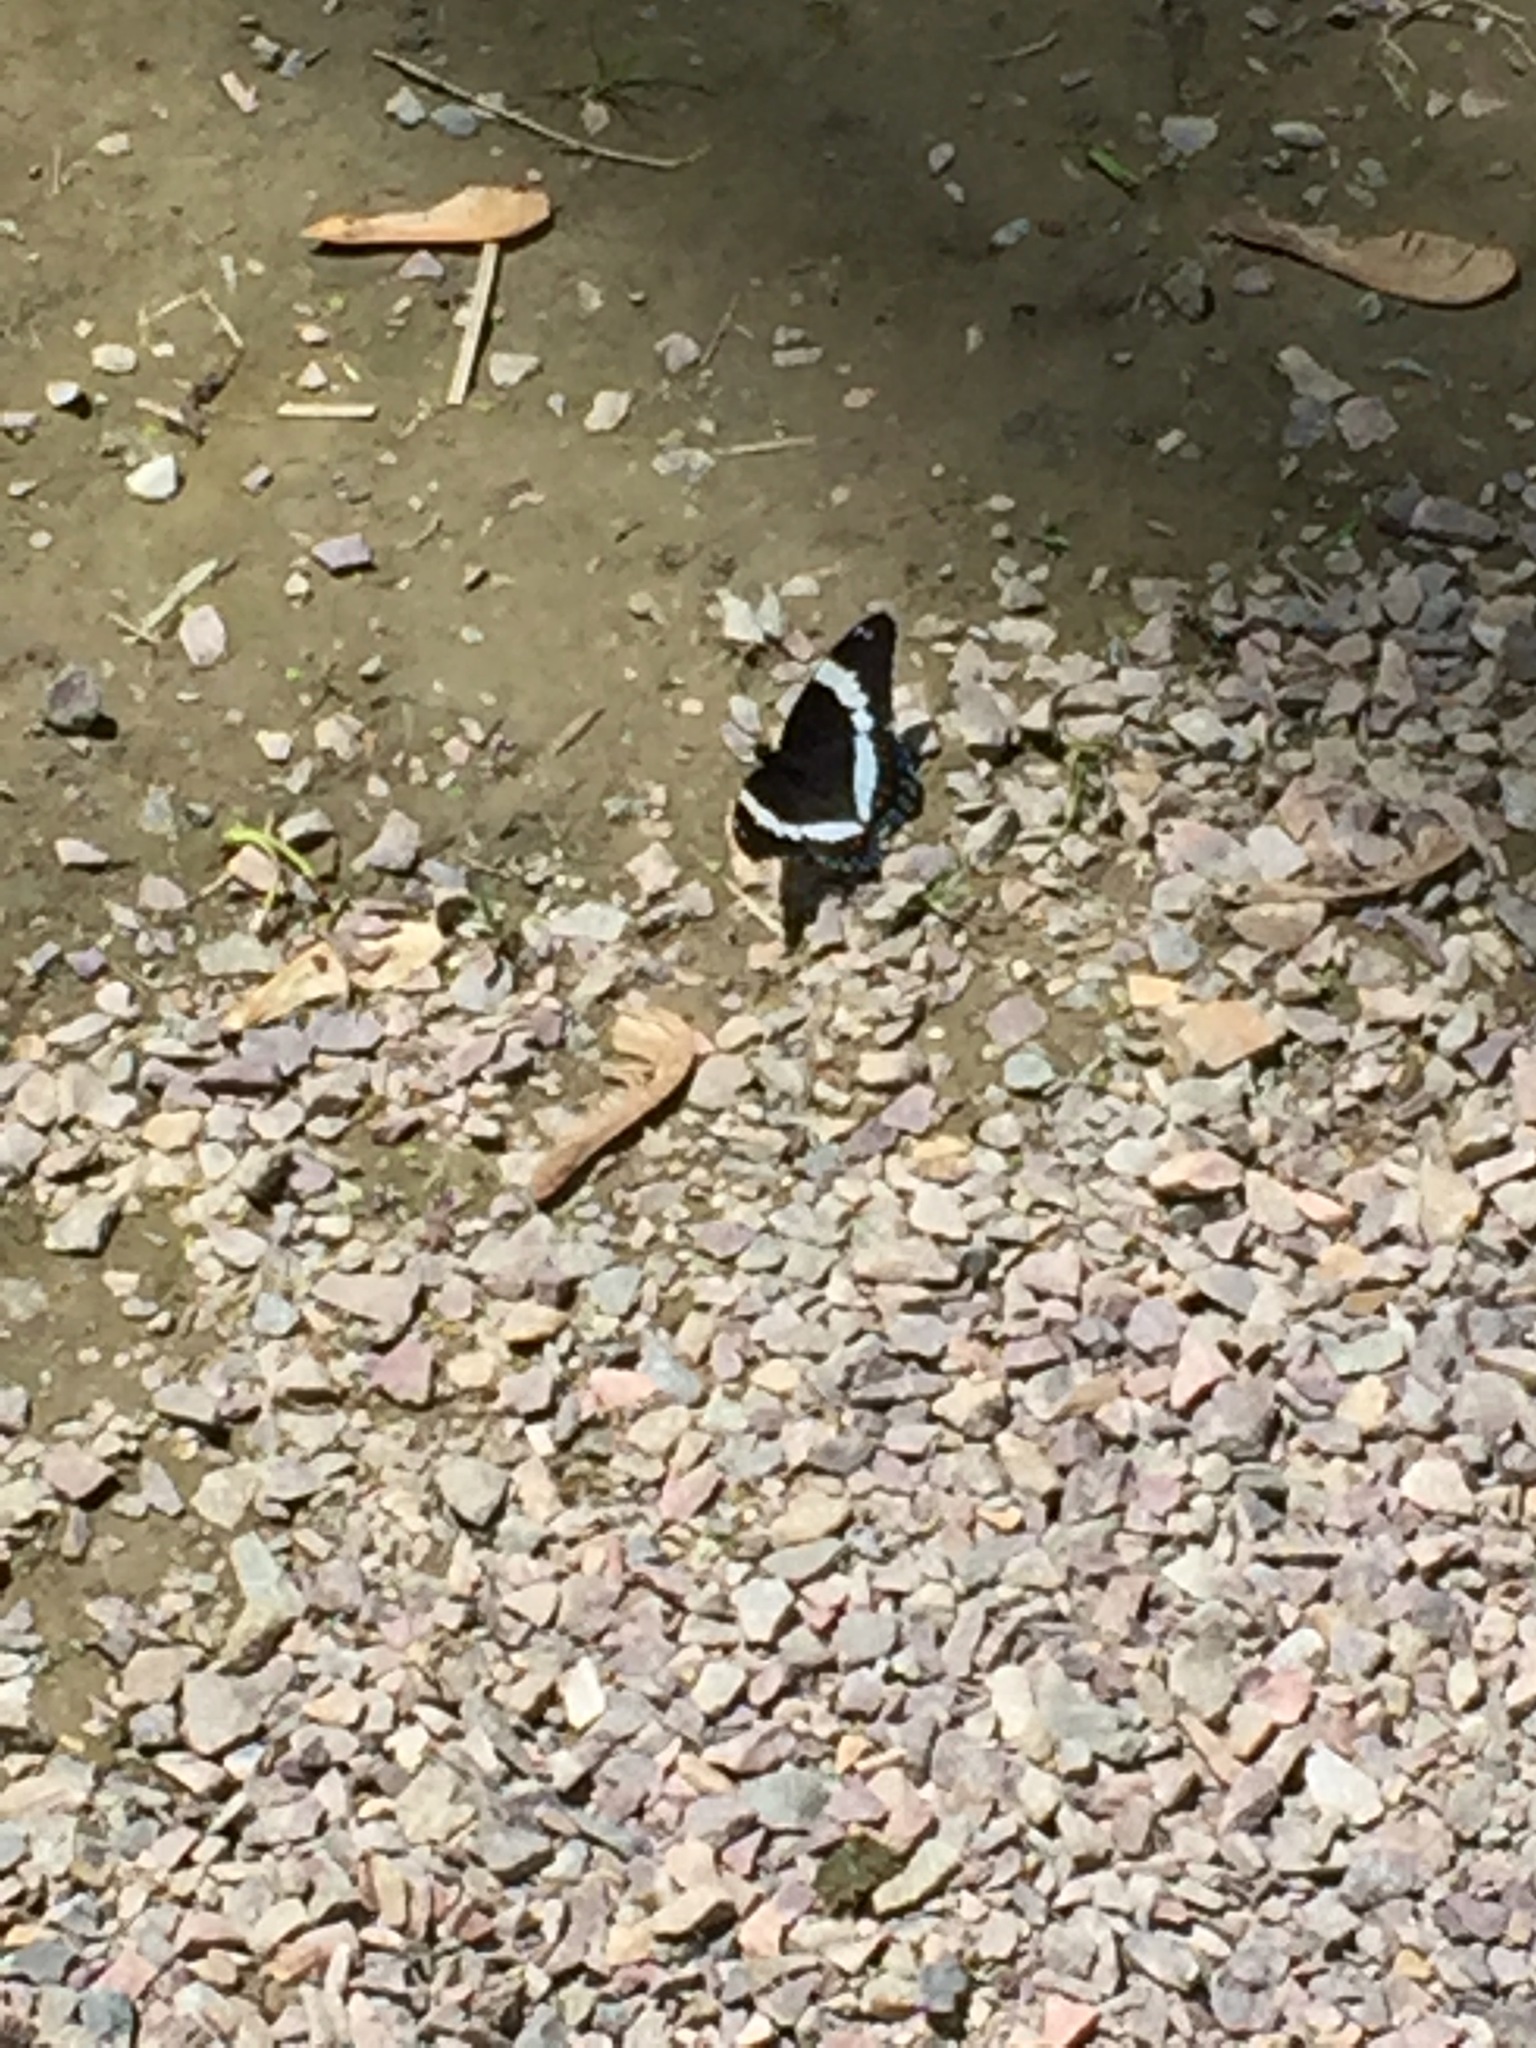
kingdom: Animalia
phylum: Arthropoda
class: Insecta
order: Lepidoptera
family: Nymphalidae
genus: Limenitis
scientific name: Limenitis arthemis
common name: Red-spotted admiral
